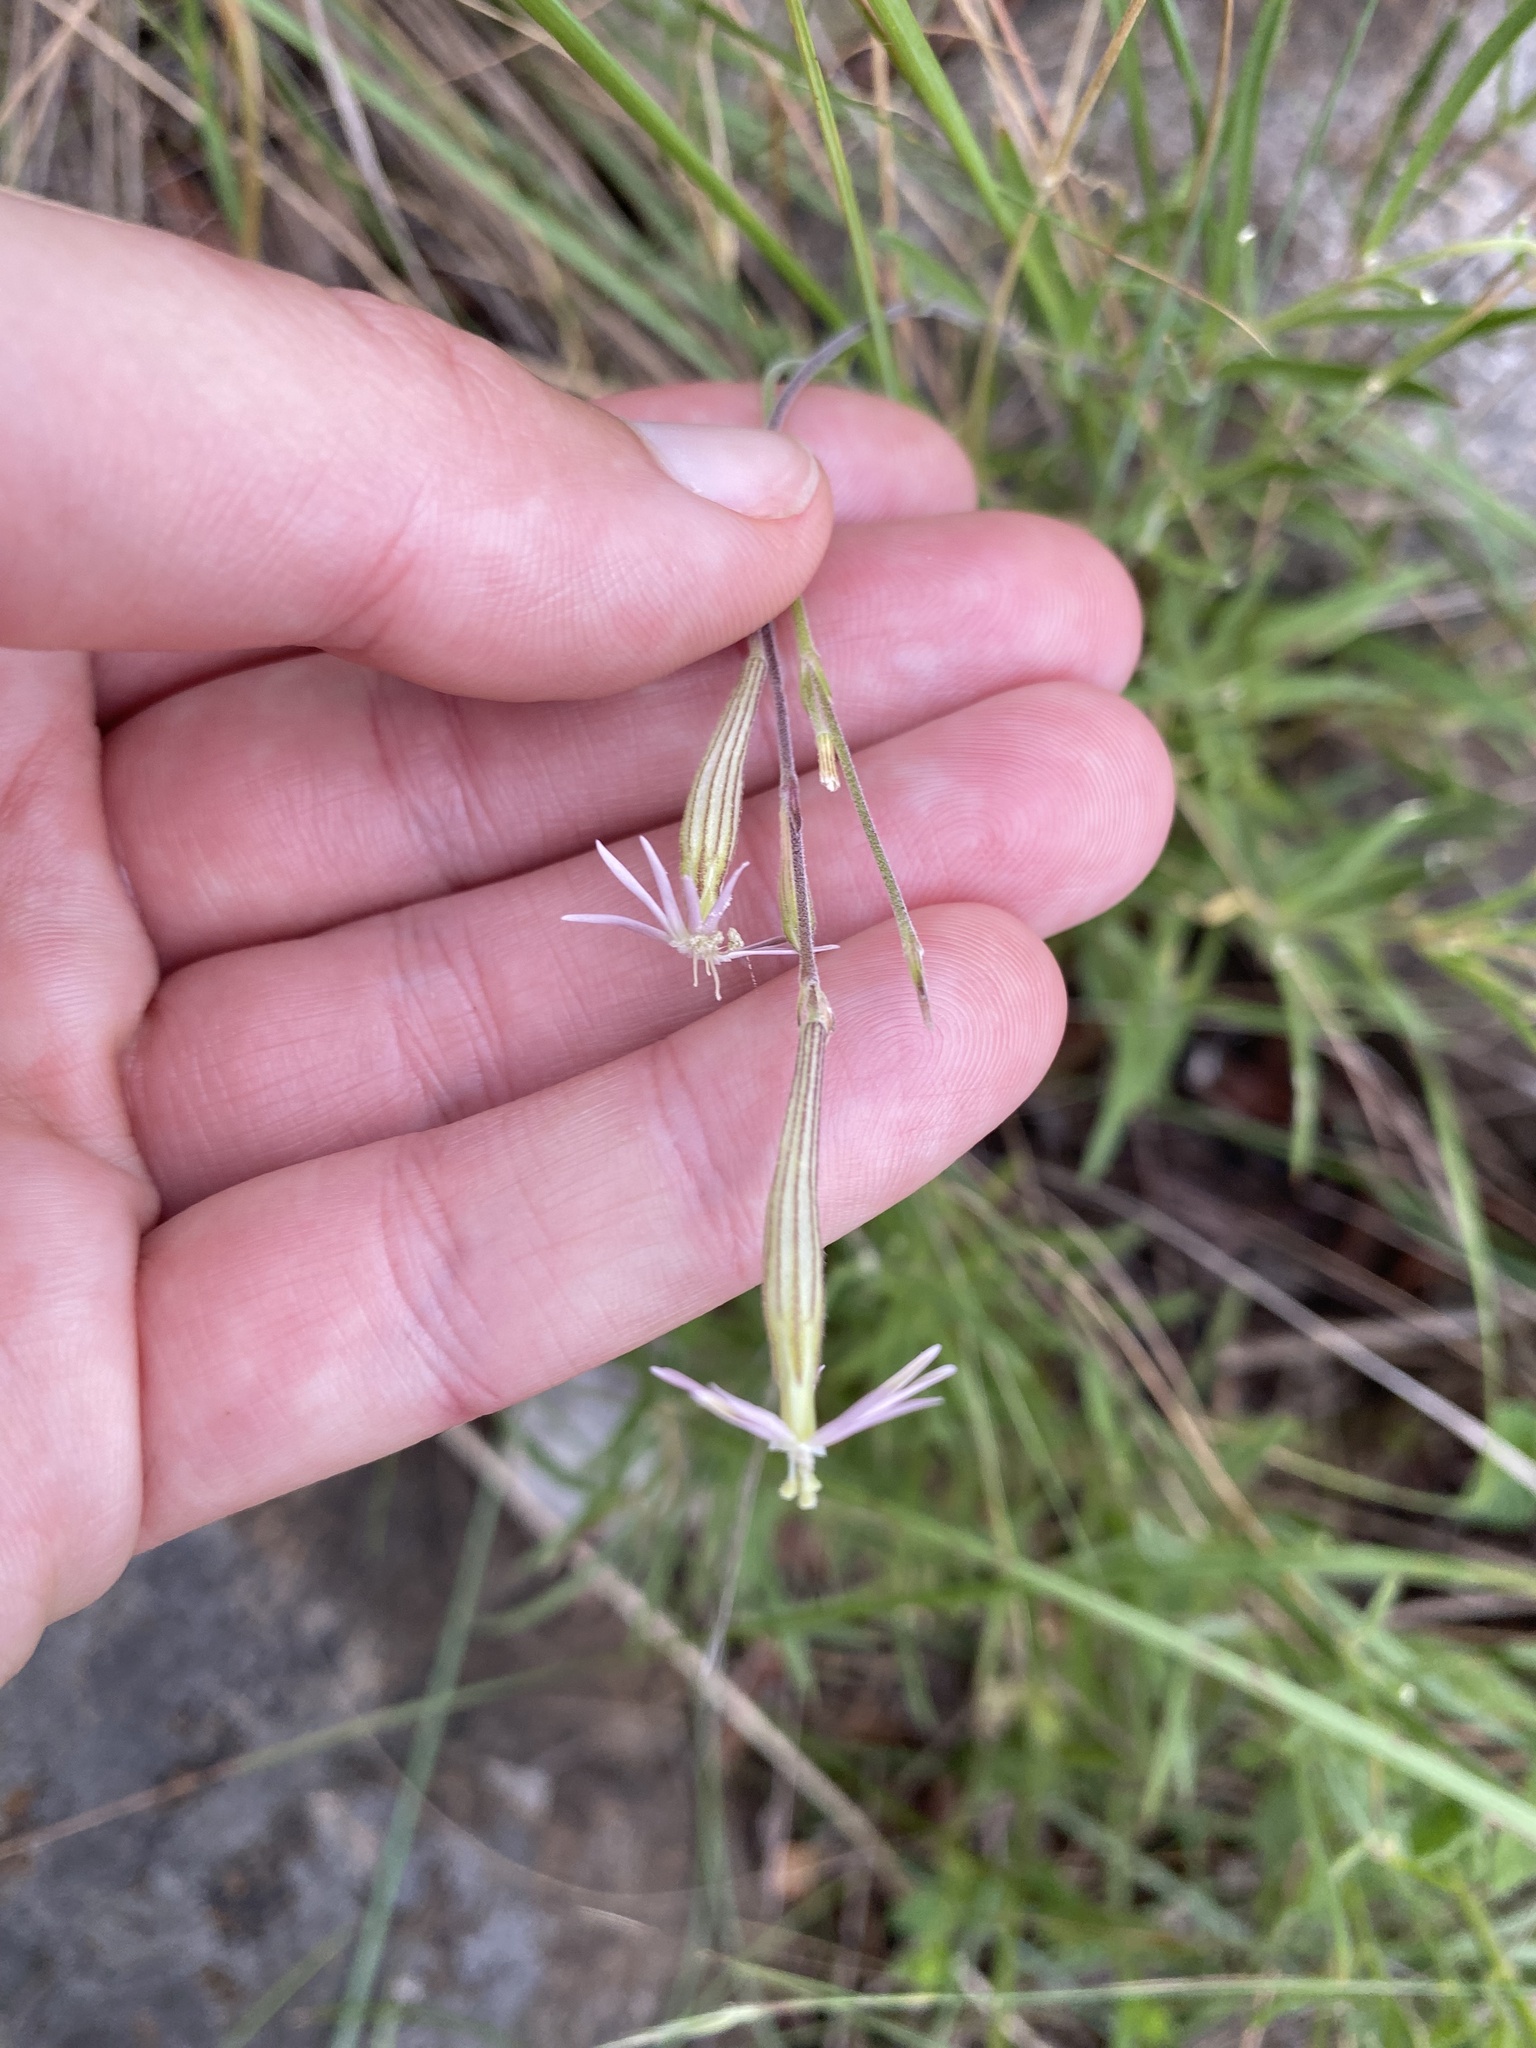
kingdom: Plantae
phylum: Tracheophyta
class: Magnoliopsida
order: Caryophyllales
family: Caryophyllaceae
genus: Silene
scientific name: Silene burchellii
